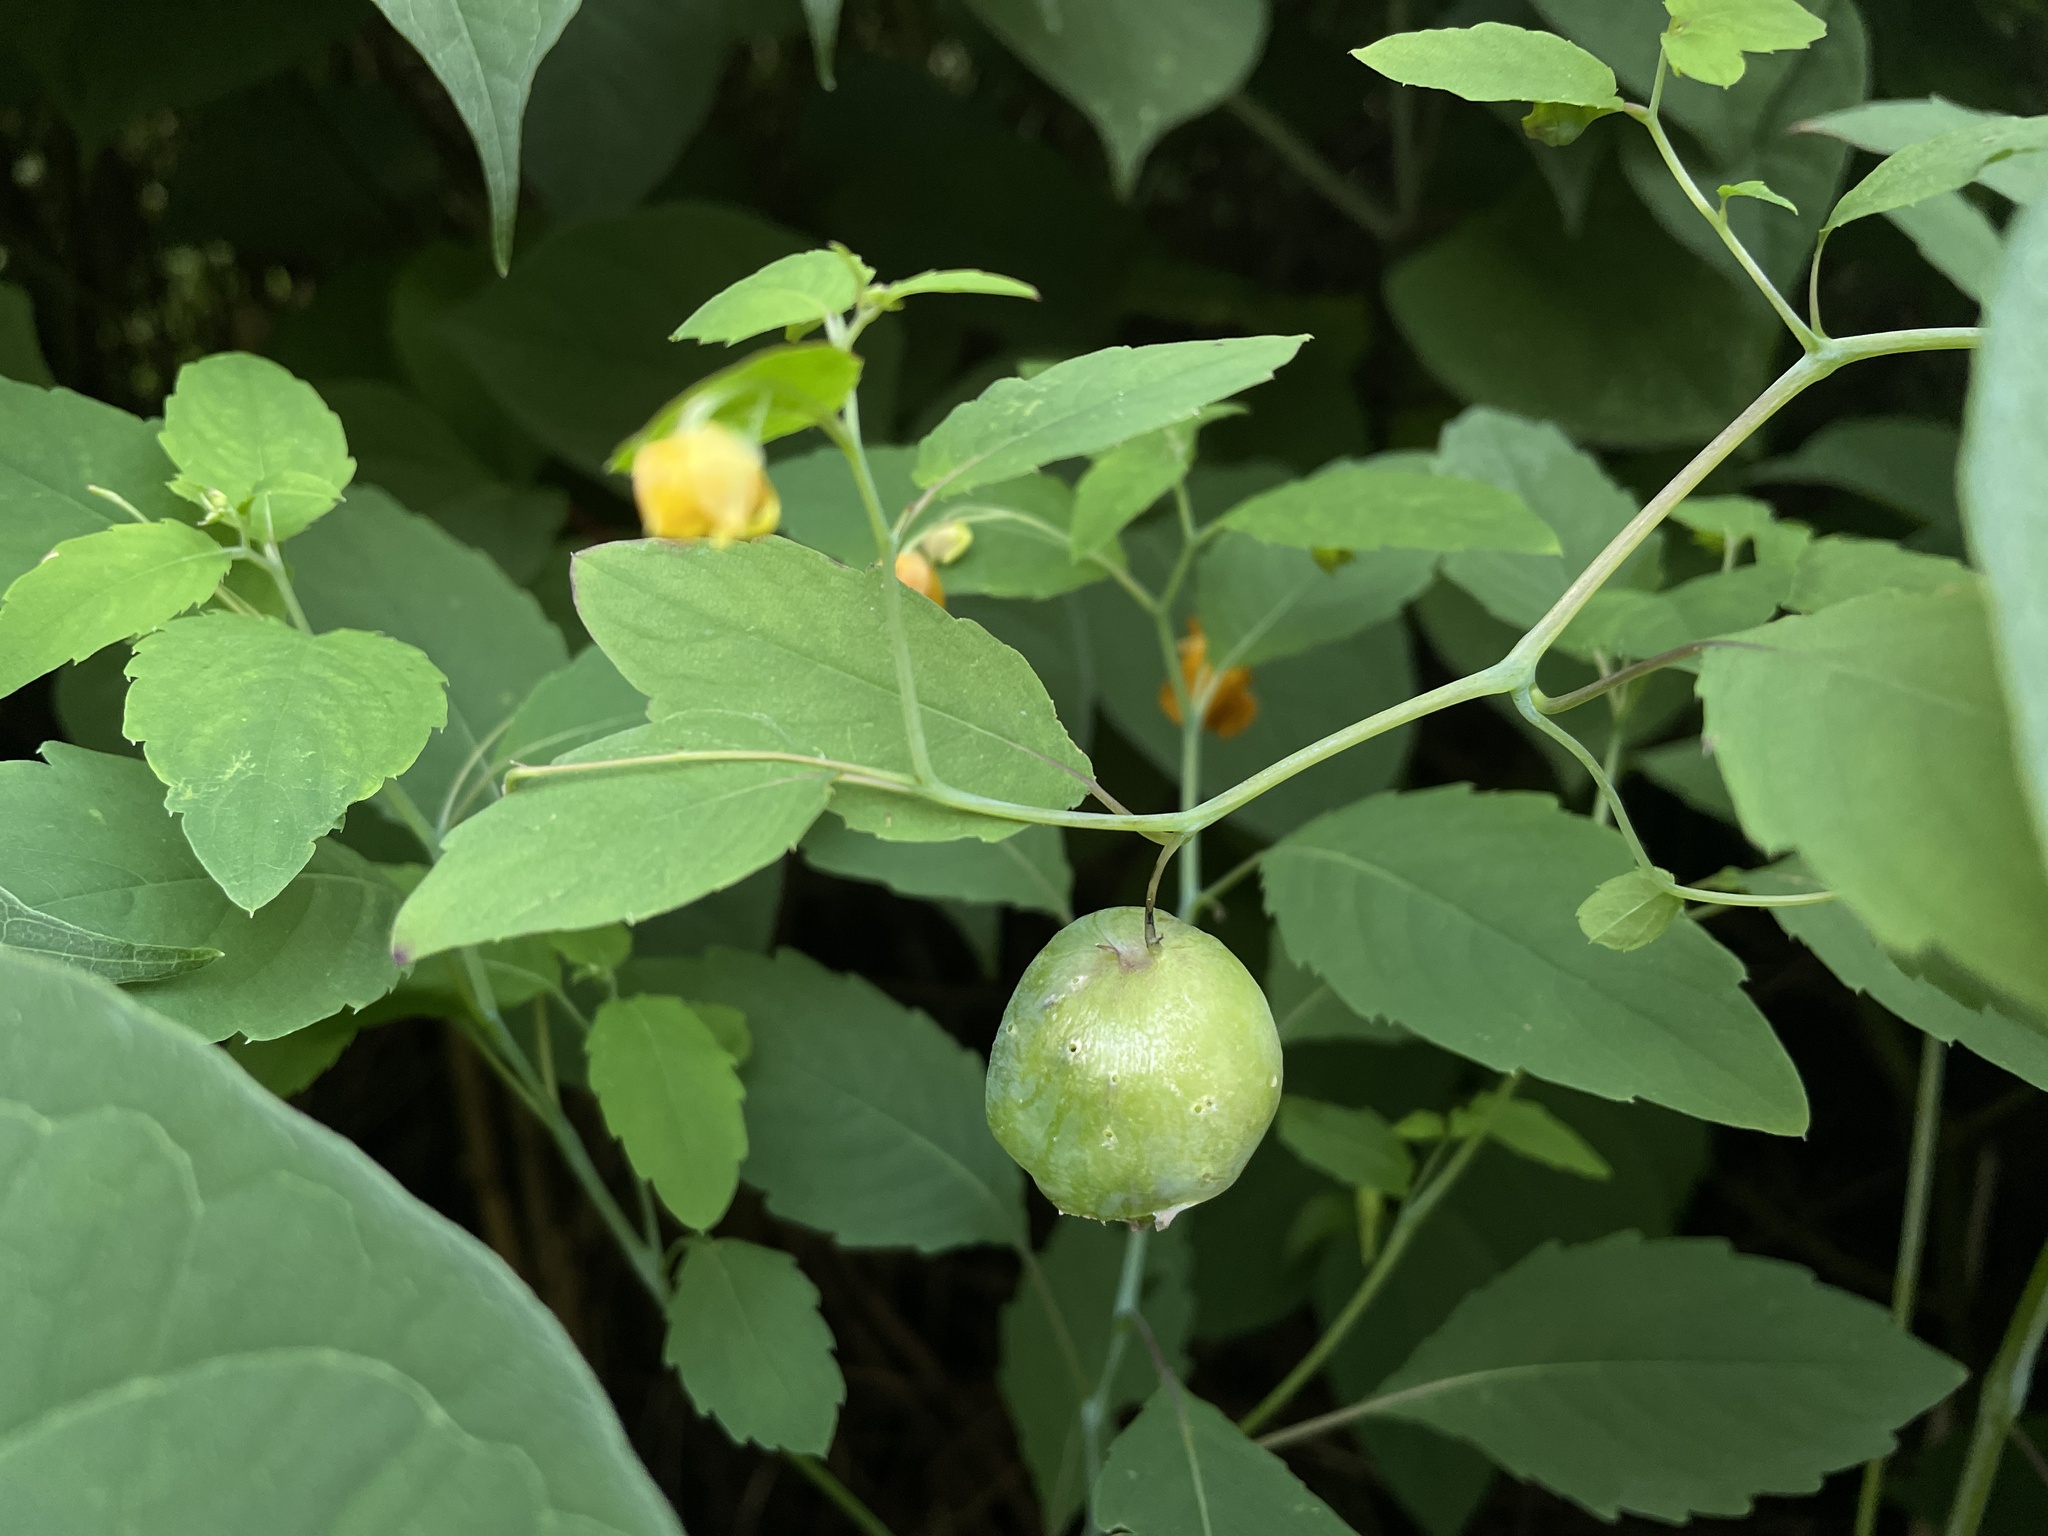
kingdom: Animalia
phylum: Arthropoda
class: Insecta
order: Diptera
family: Cecidomyiidae
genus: Schizomyia
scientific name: Schizomyia impatientis
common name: Jewelweed gall midge
